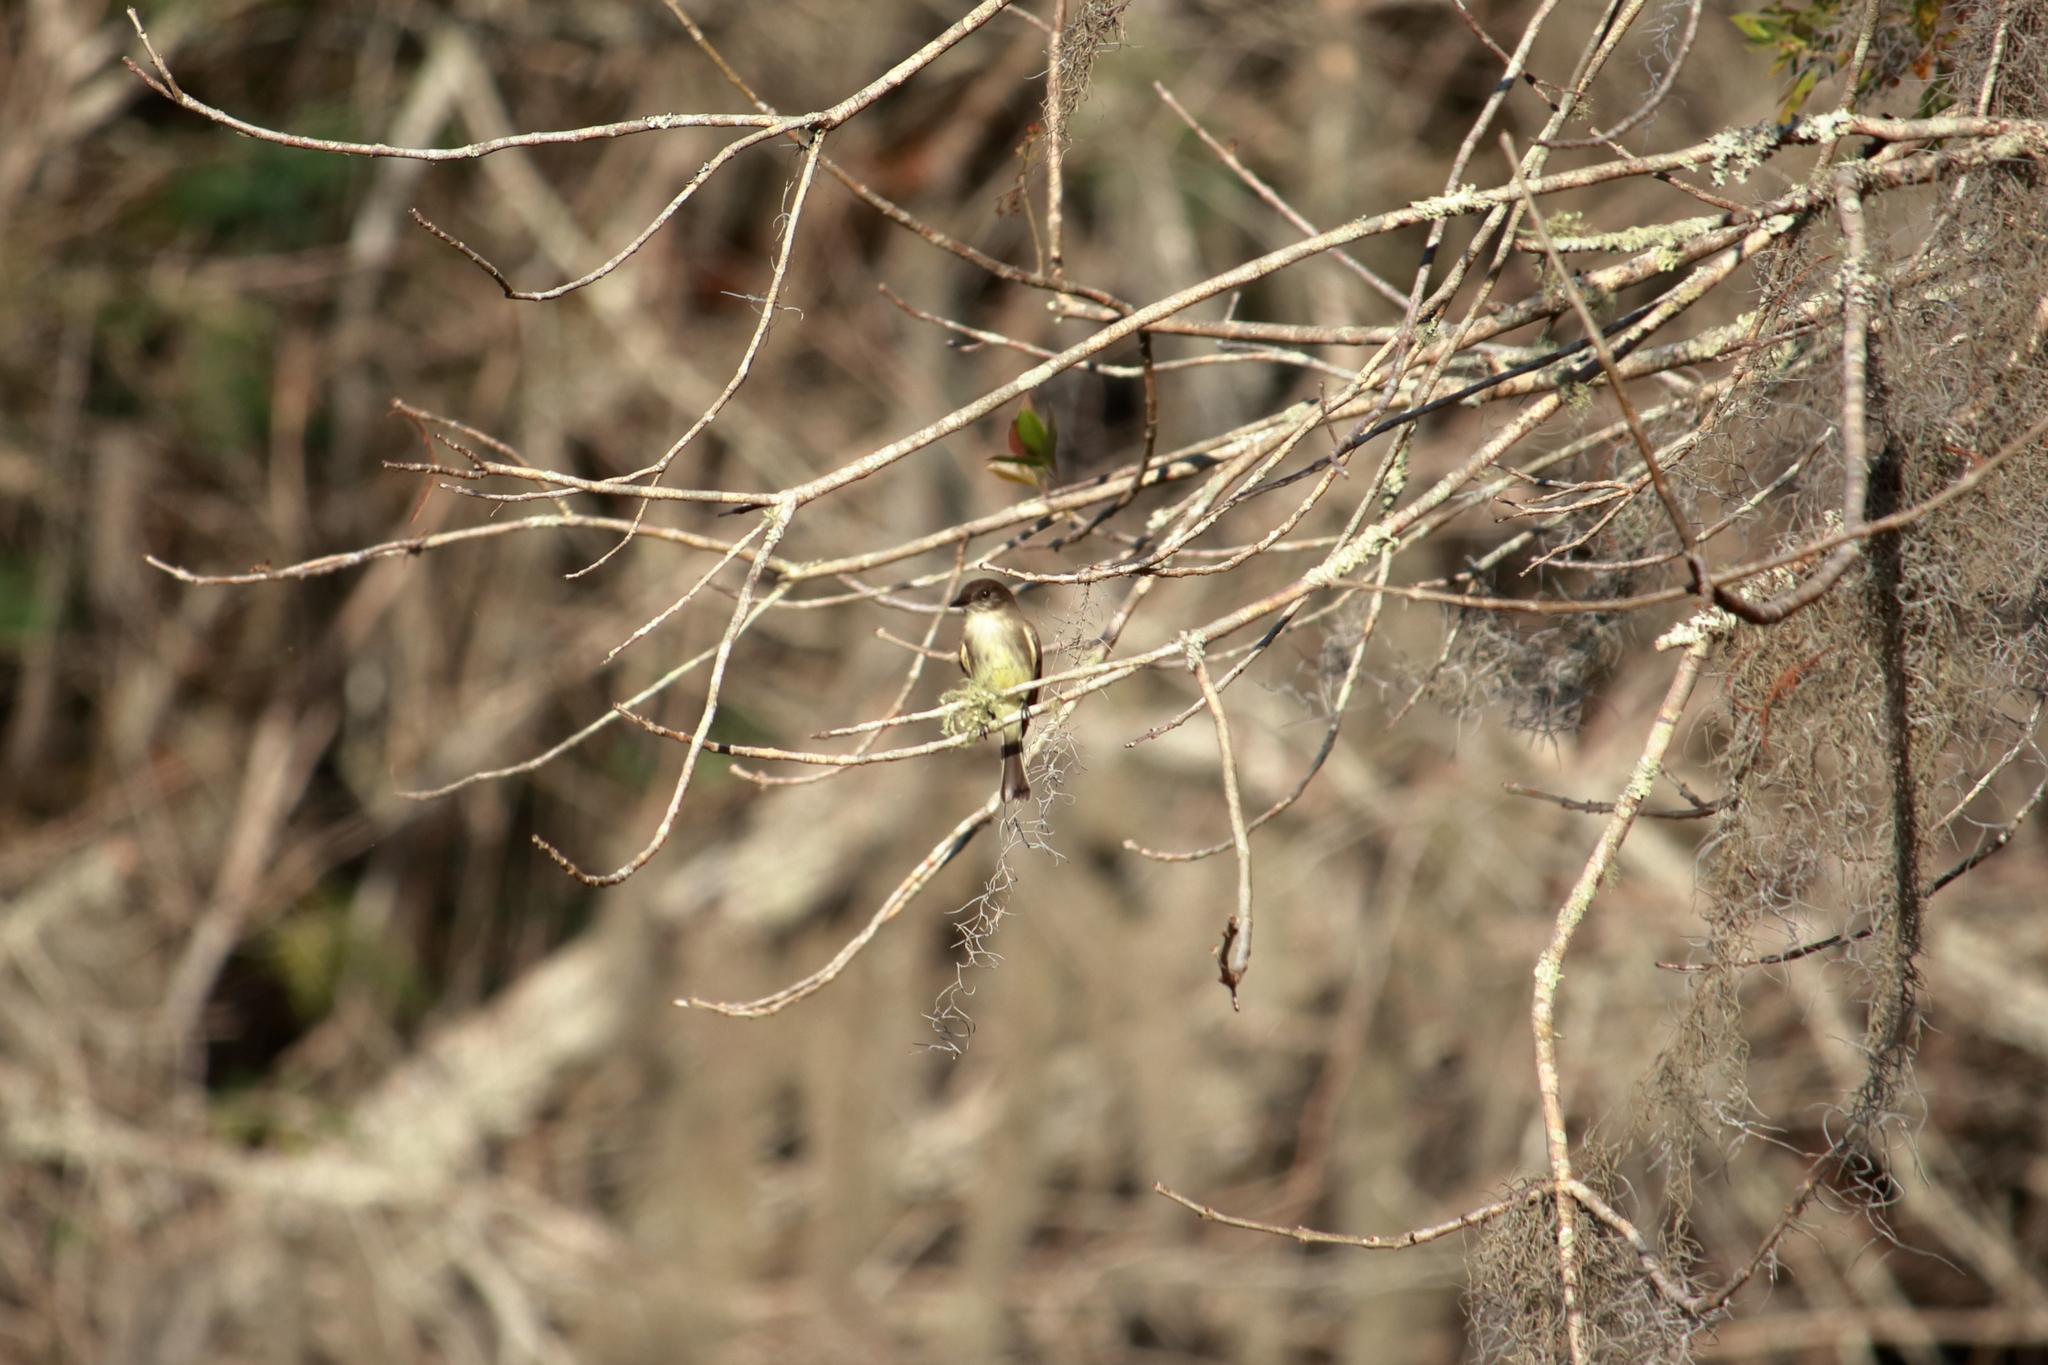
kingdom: Animalia
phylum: Chordata
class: Aves
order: Passeriformes
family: Tyrannidae
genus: Sayornis
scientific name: Sayornis phoebe
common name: Eastern phoebe
